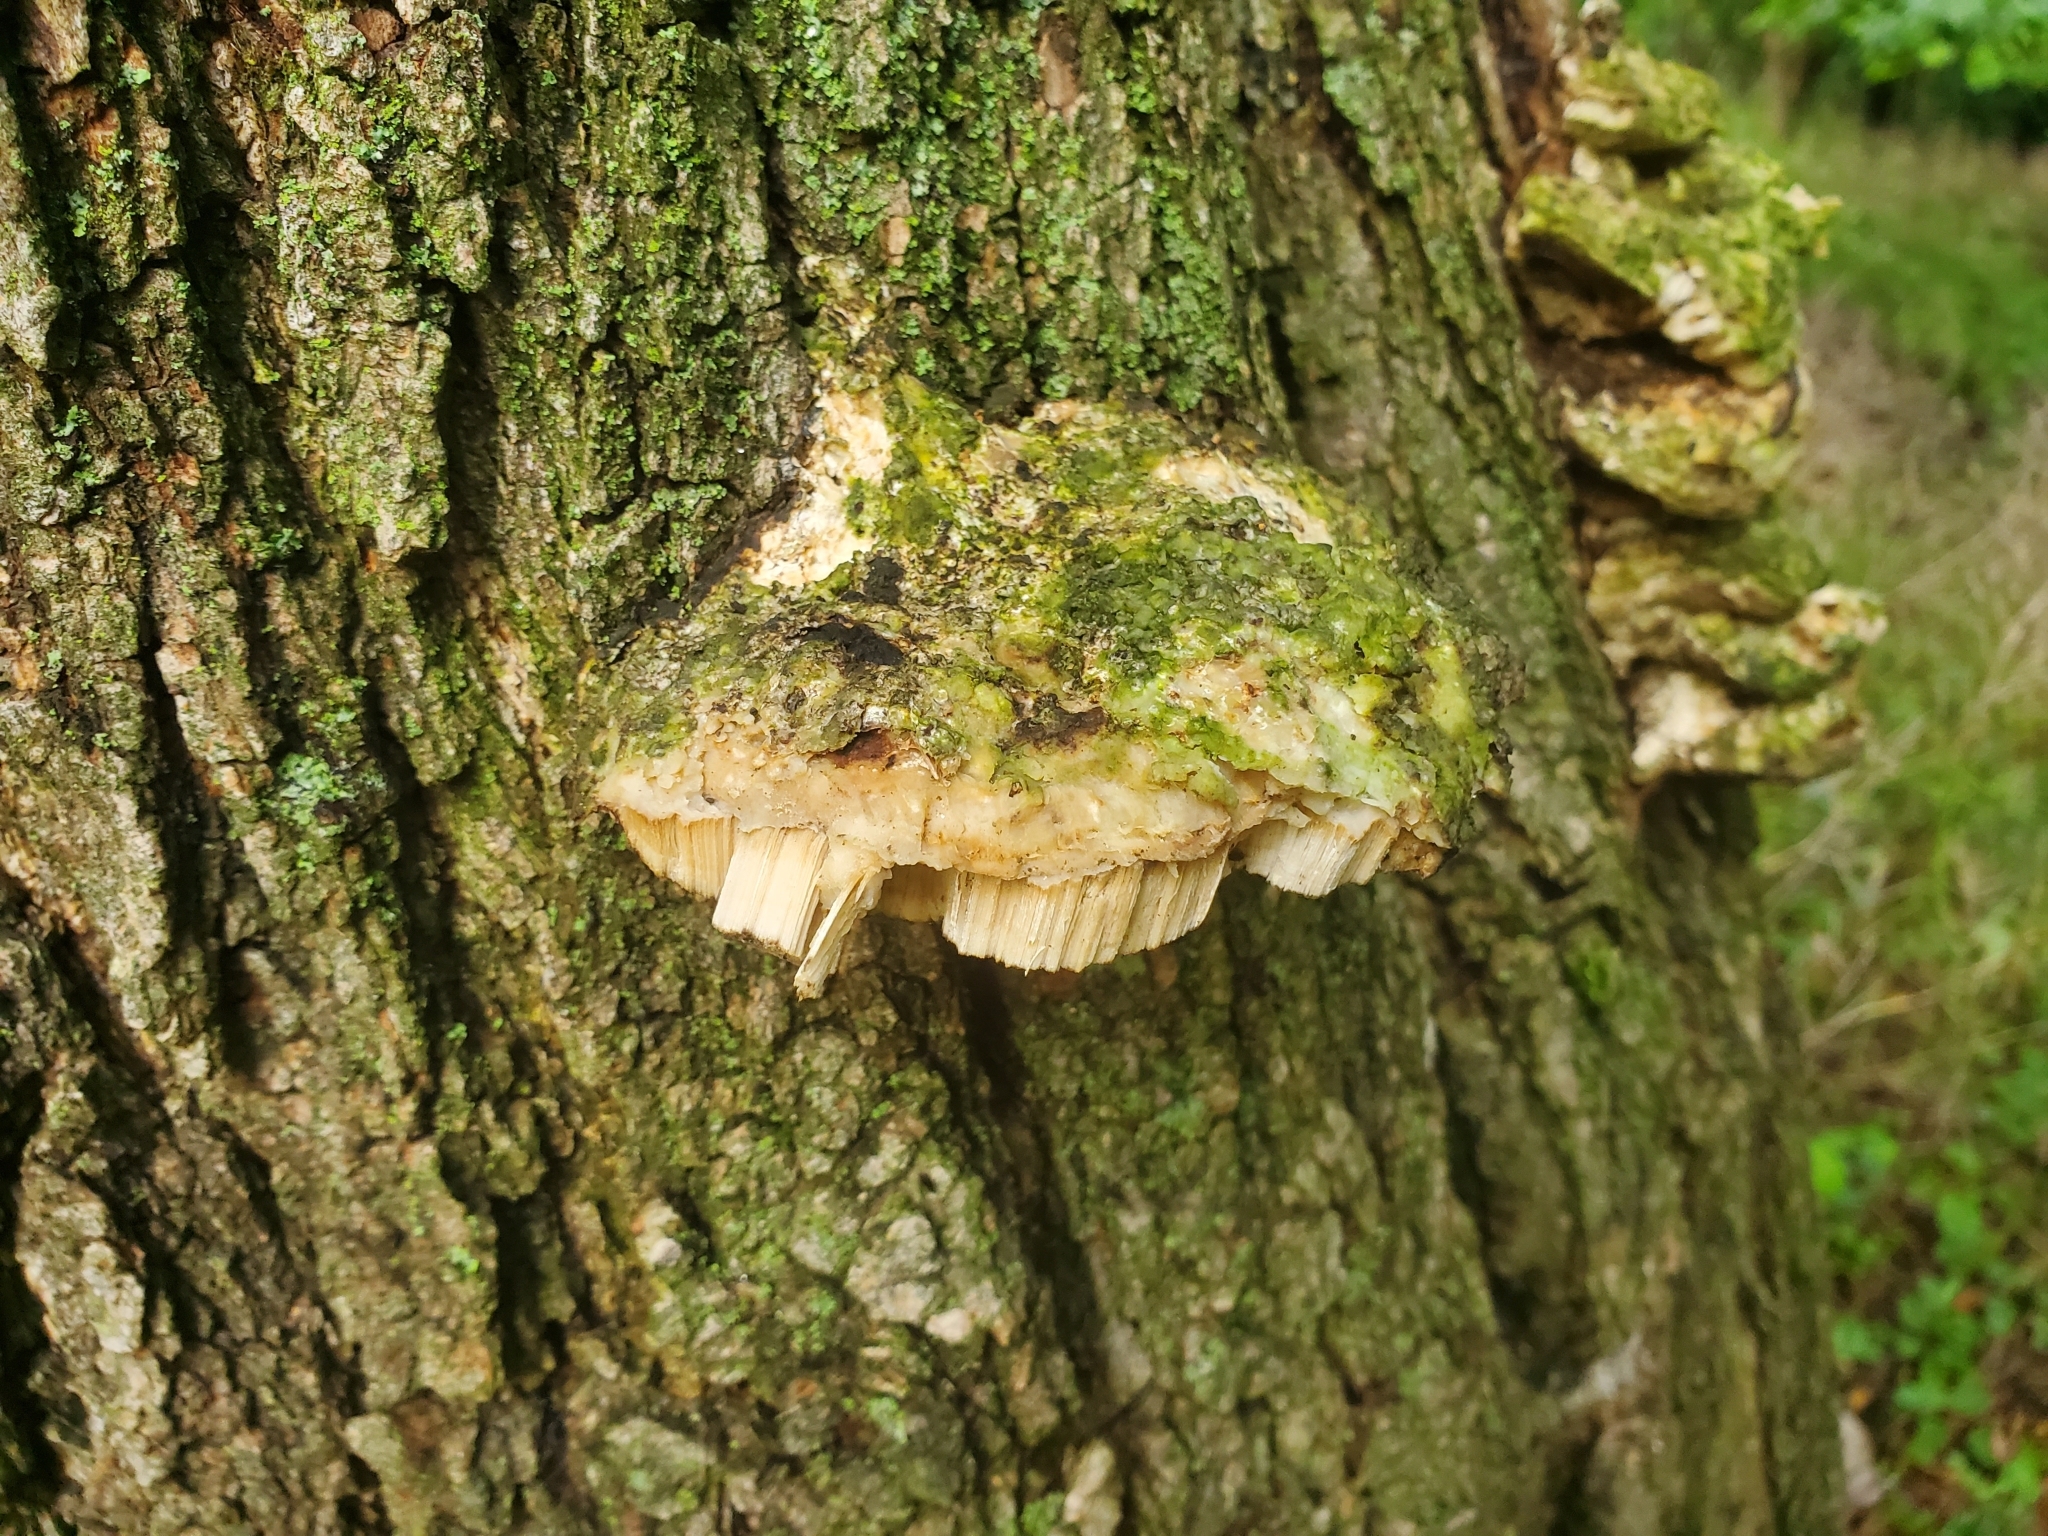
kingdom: Fungi
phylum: Basidiomycota
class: Agaricomycetes
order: Hymenochaetales
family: Oxyporaceae
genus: Oxyporus
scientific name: Oxyporus populinus
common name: Poplar bracket
